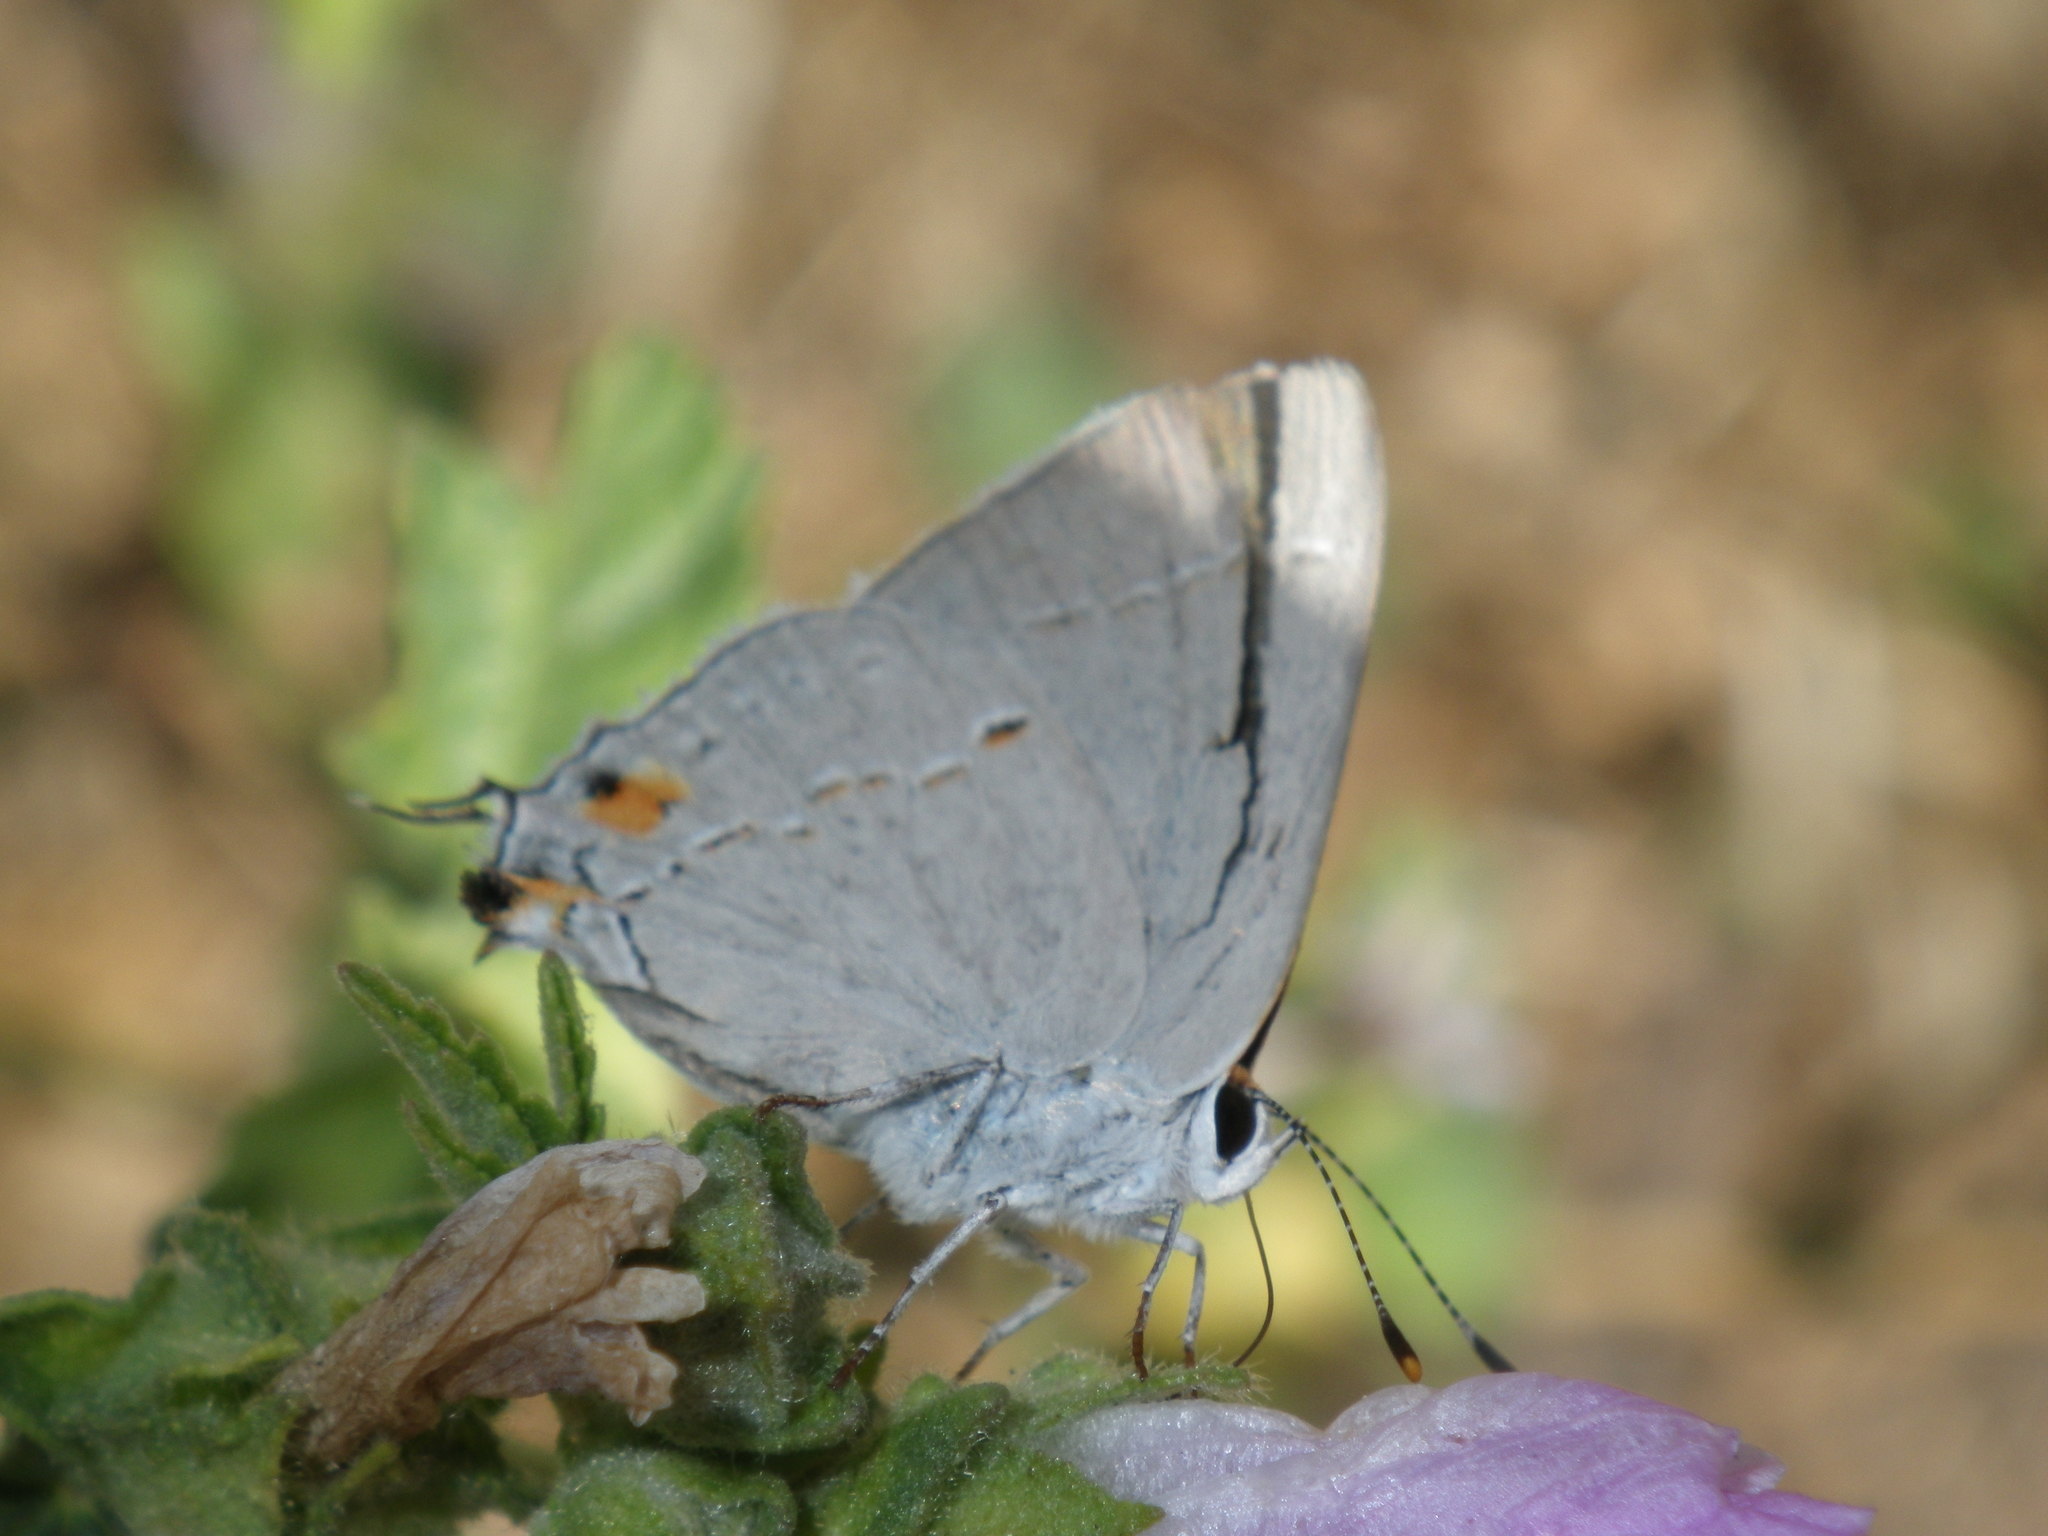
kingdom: Animalia
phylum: Arthropoda
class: Insecta
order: Lepidoptera
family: Lycaenidae
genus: Strymon
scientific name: Strymon melinus
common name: Gray hairstreak
